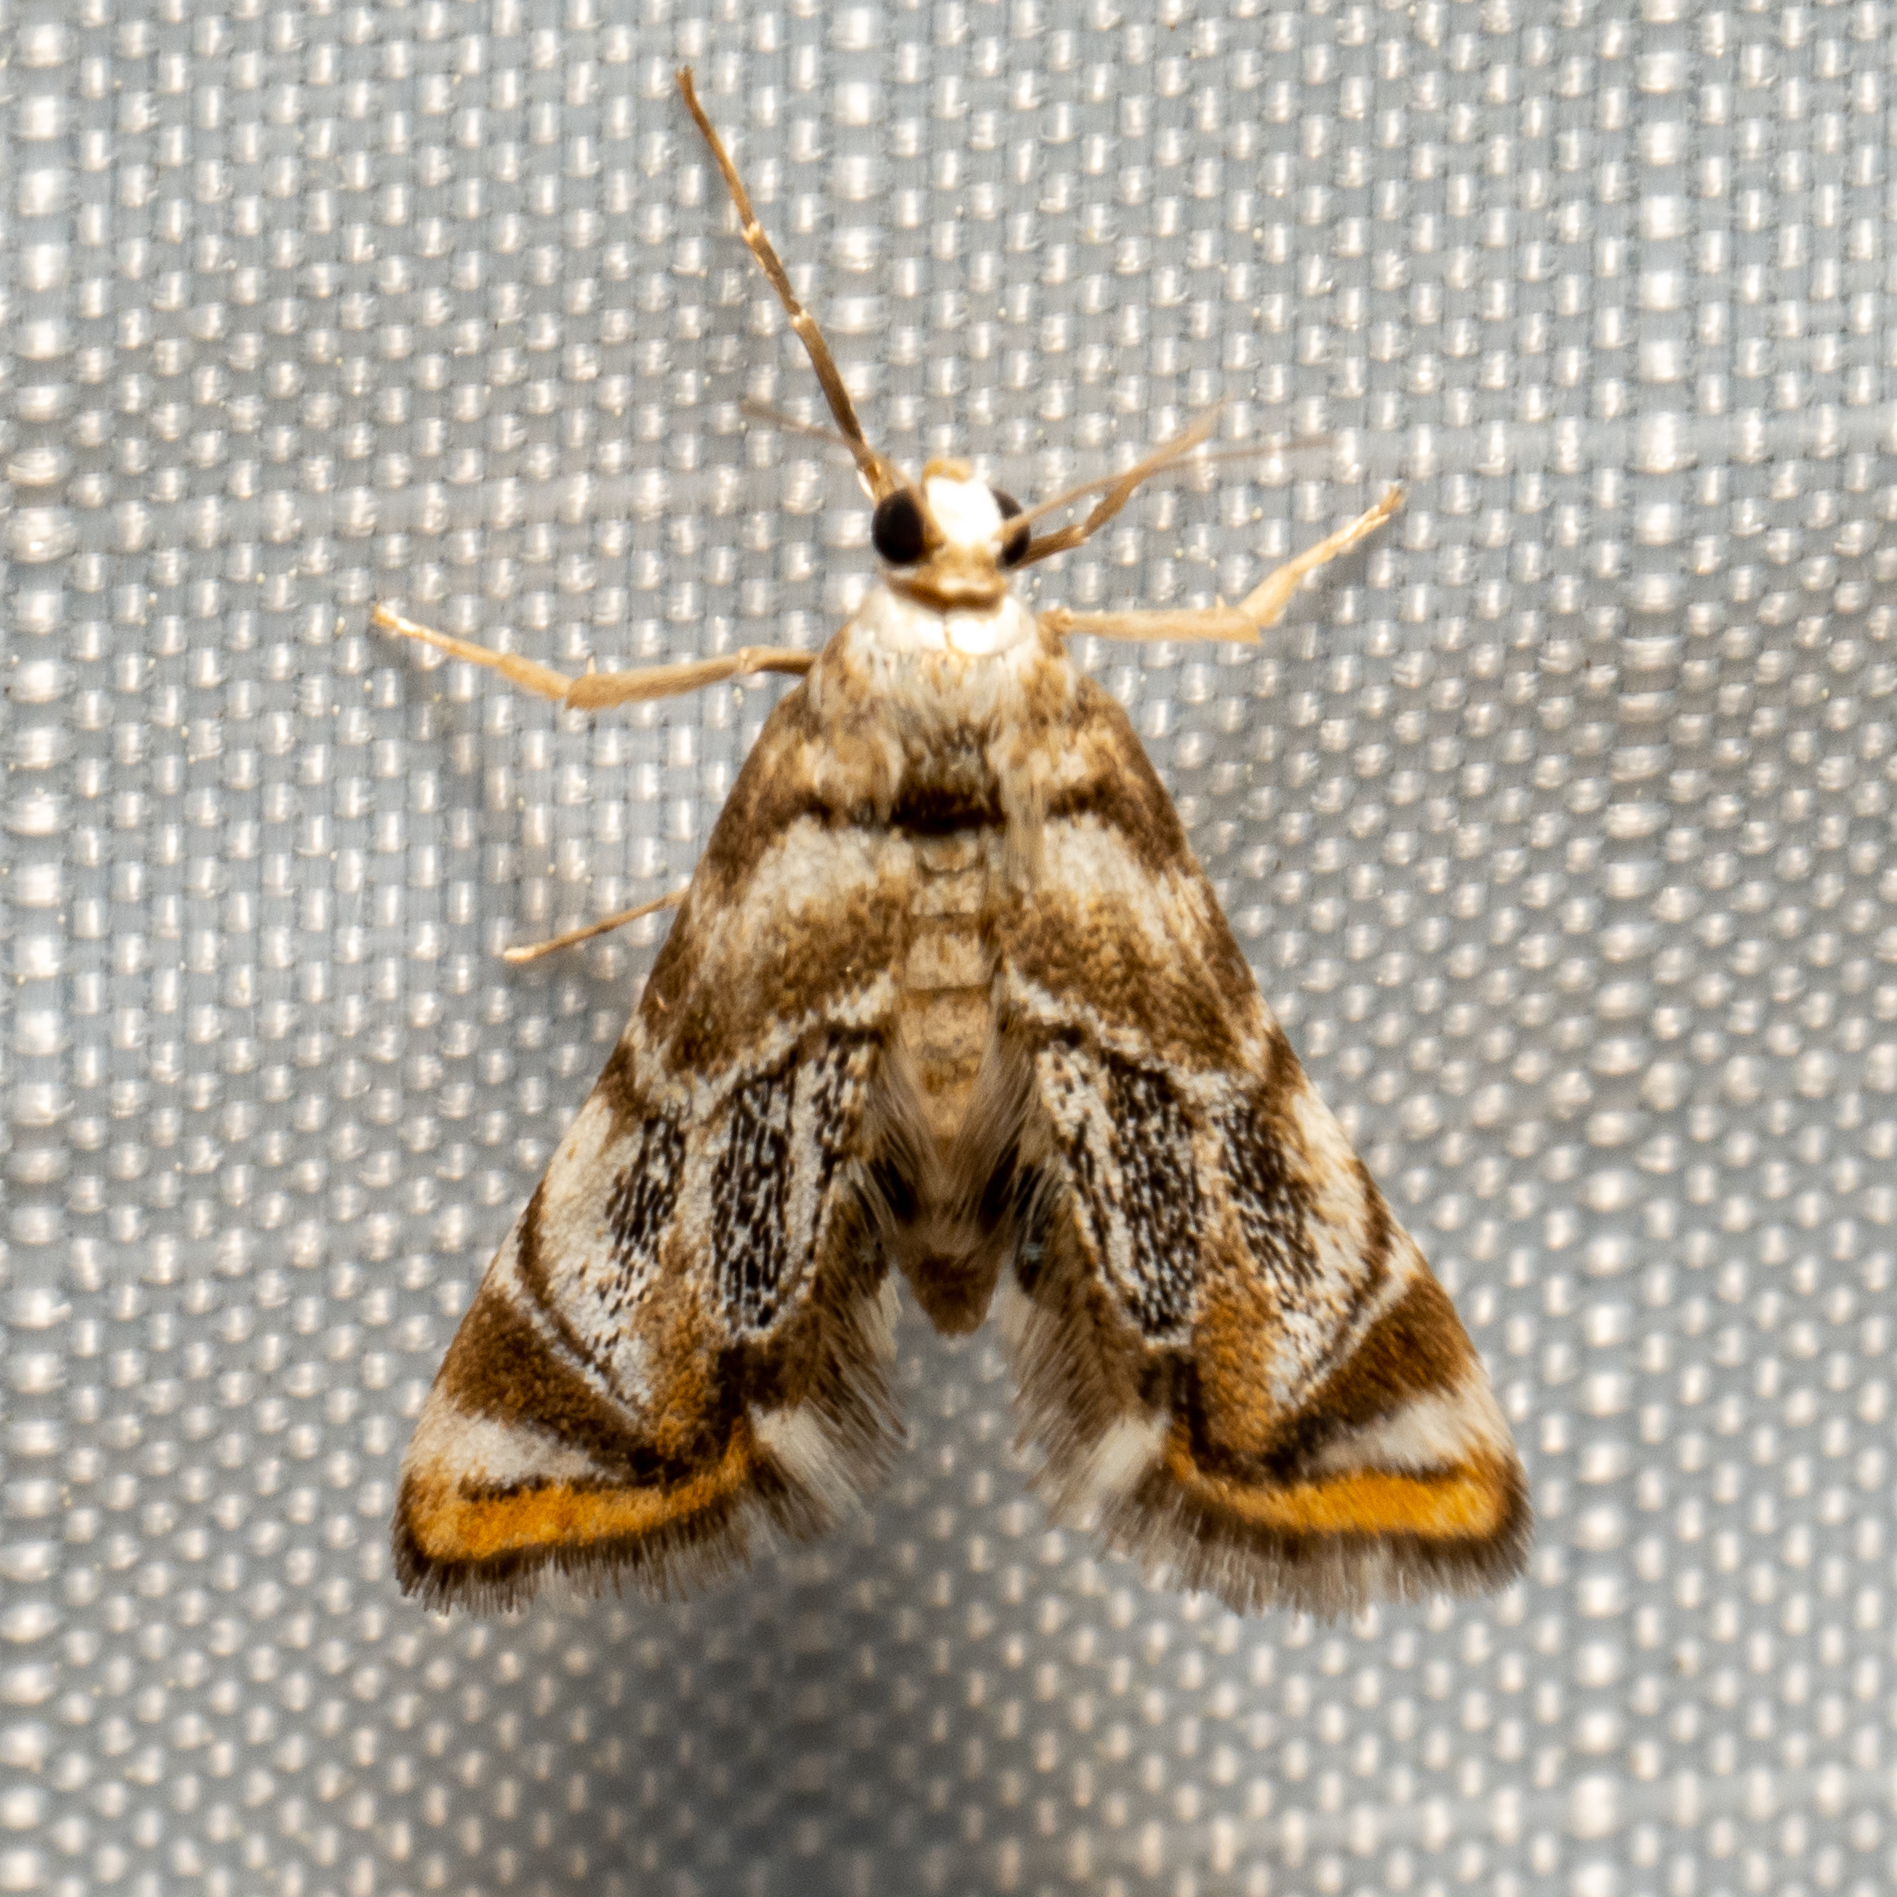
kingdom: Animalia
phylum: Arthropoda
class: Insecta
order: Lepidoptera
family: Crambidae
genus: Eoparargyractis
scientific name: Eoparargyractis irroratalis
